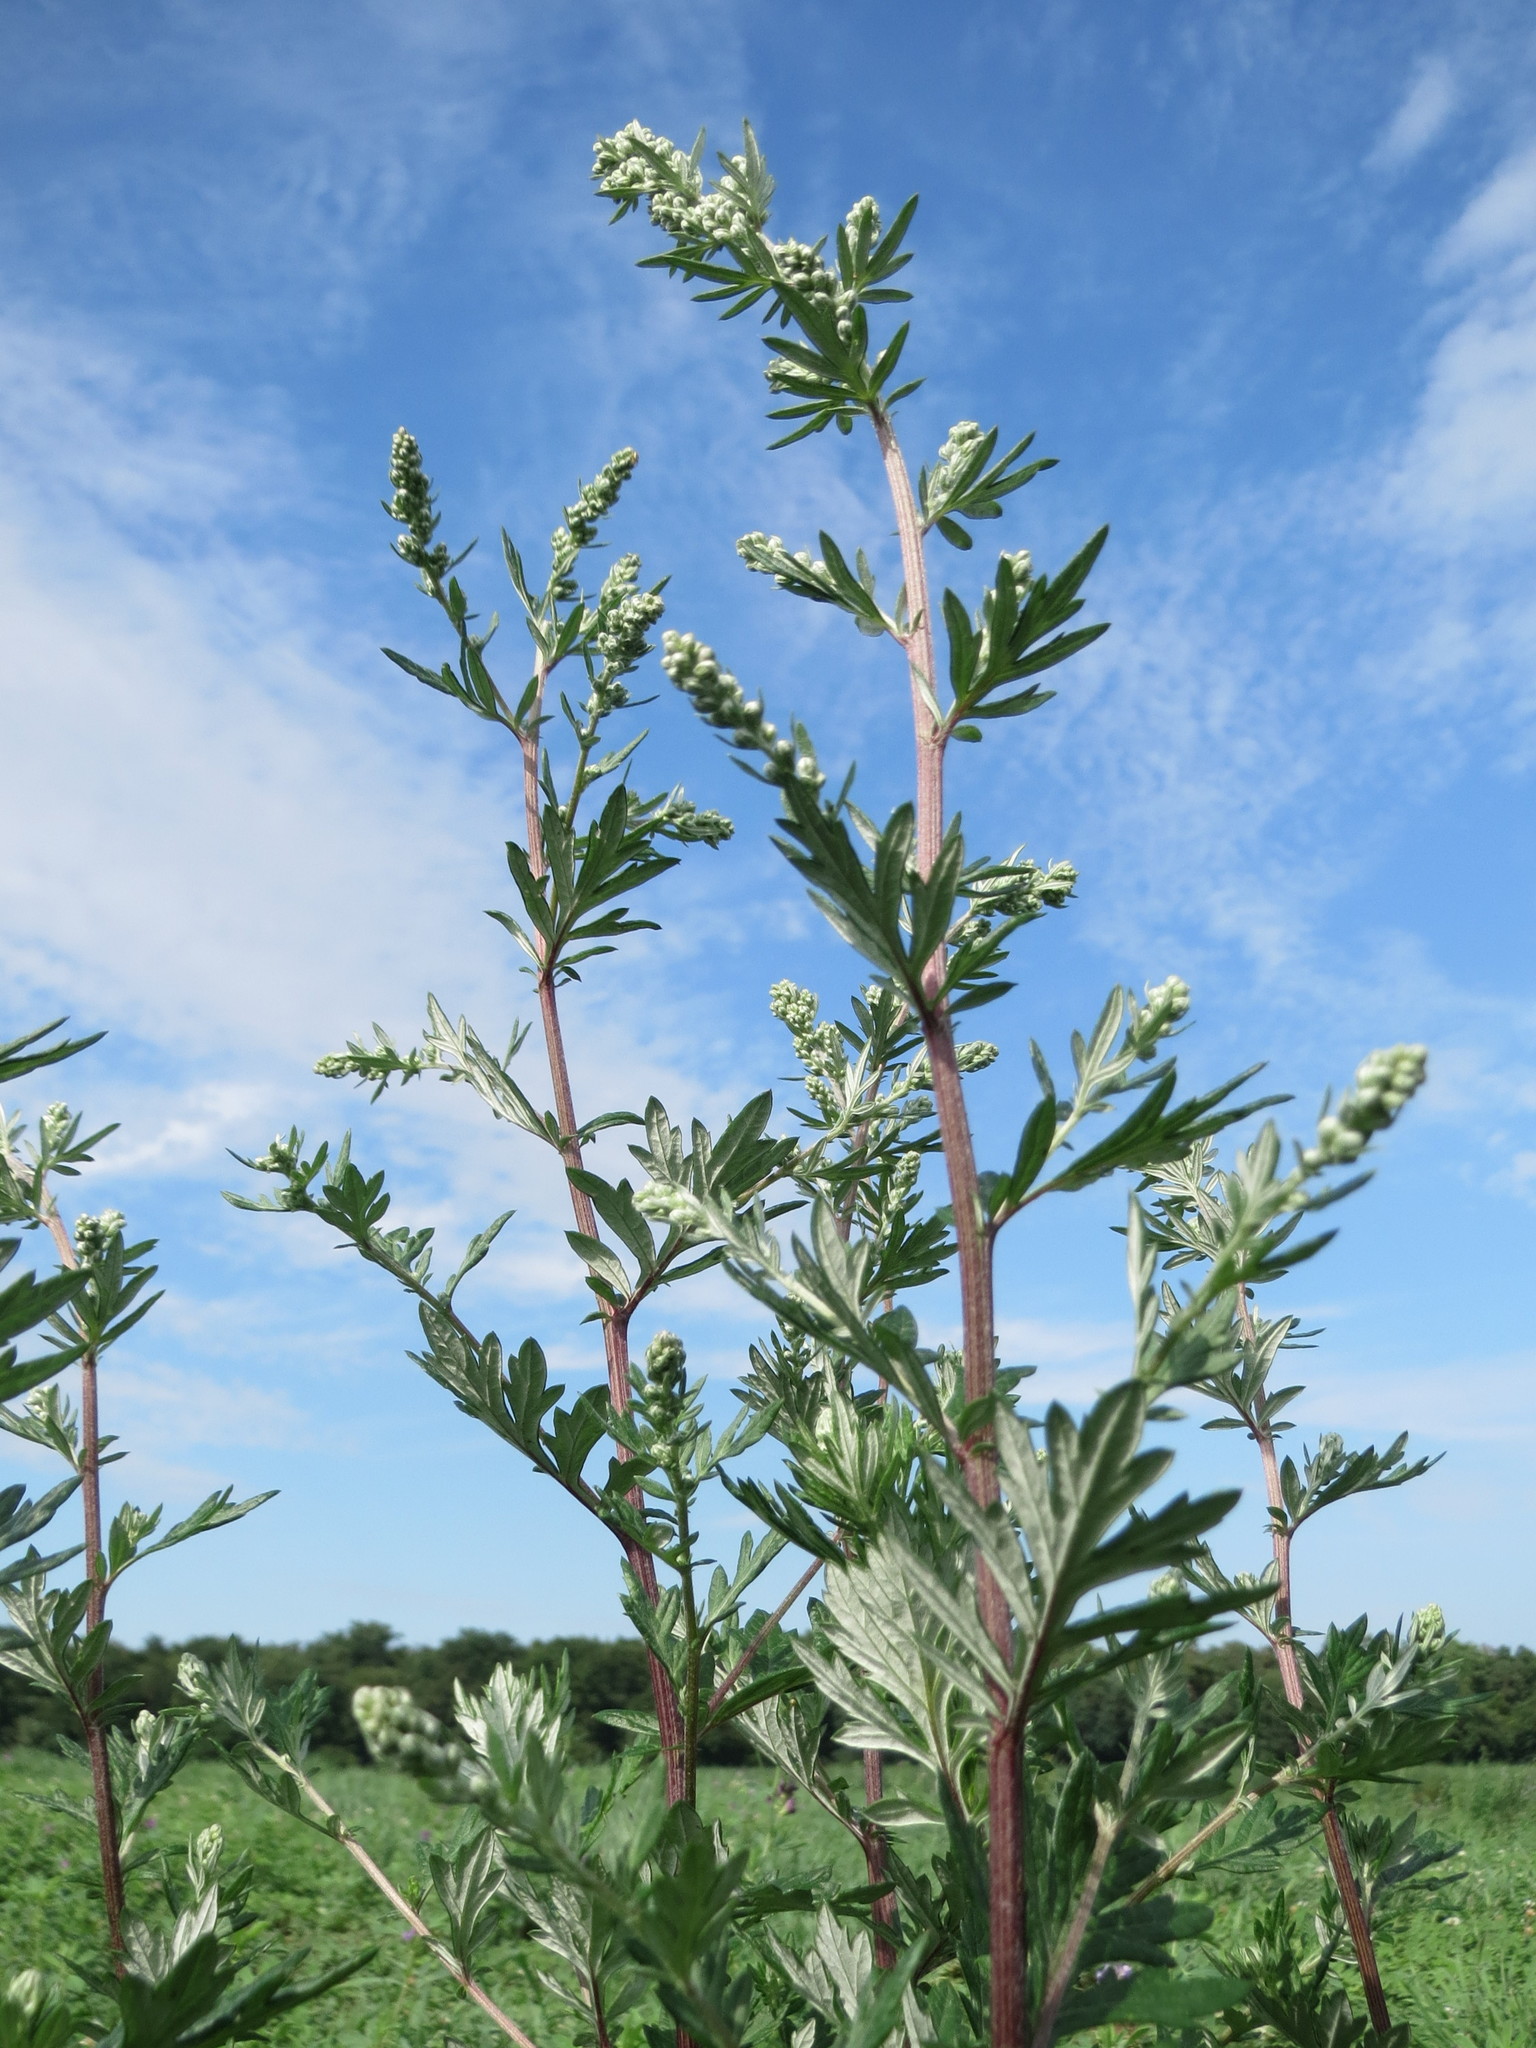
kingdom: Plantae
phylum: Tracheophyta
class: Magnoliopsida
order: Asterales
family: Asteraceae
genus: Artemisia
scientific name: Artemisia vulgaris
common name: Mugwort
